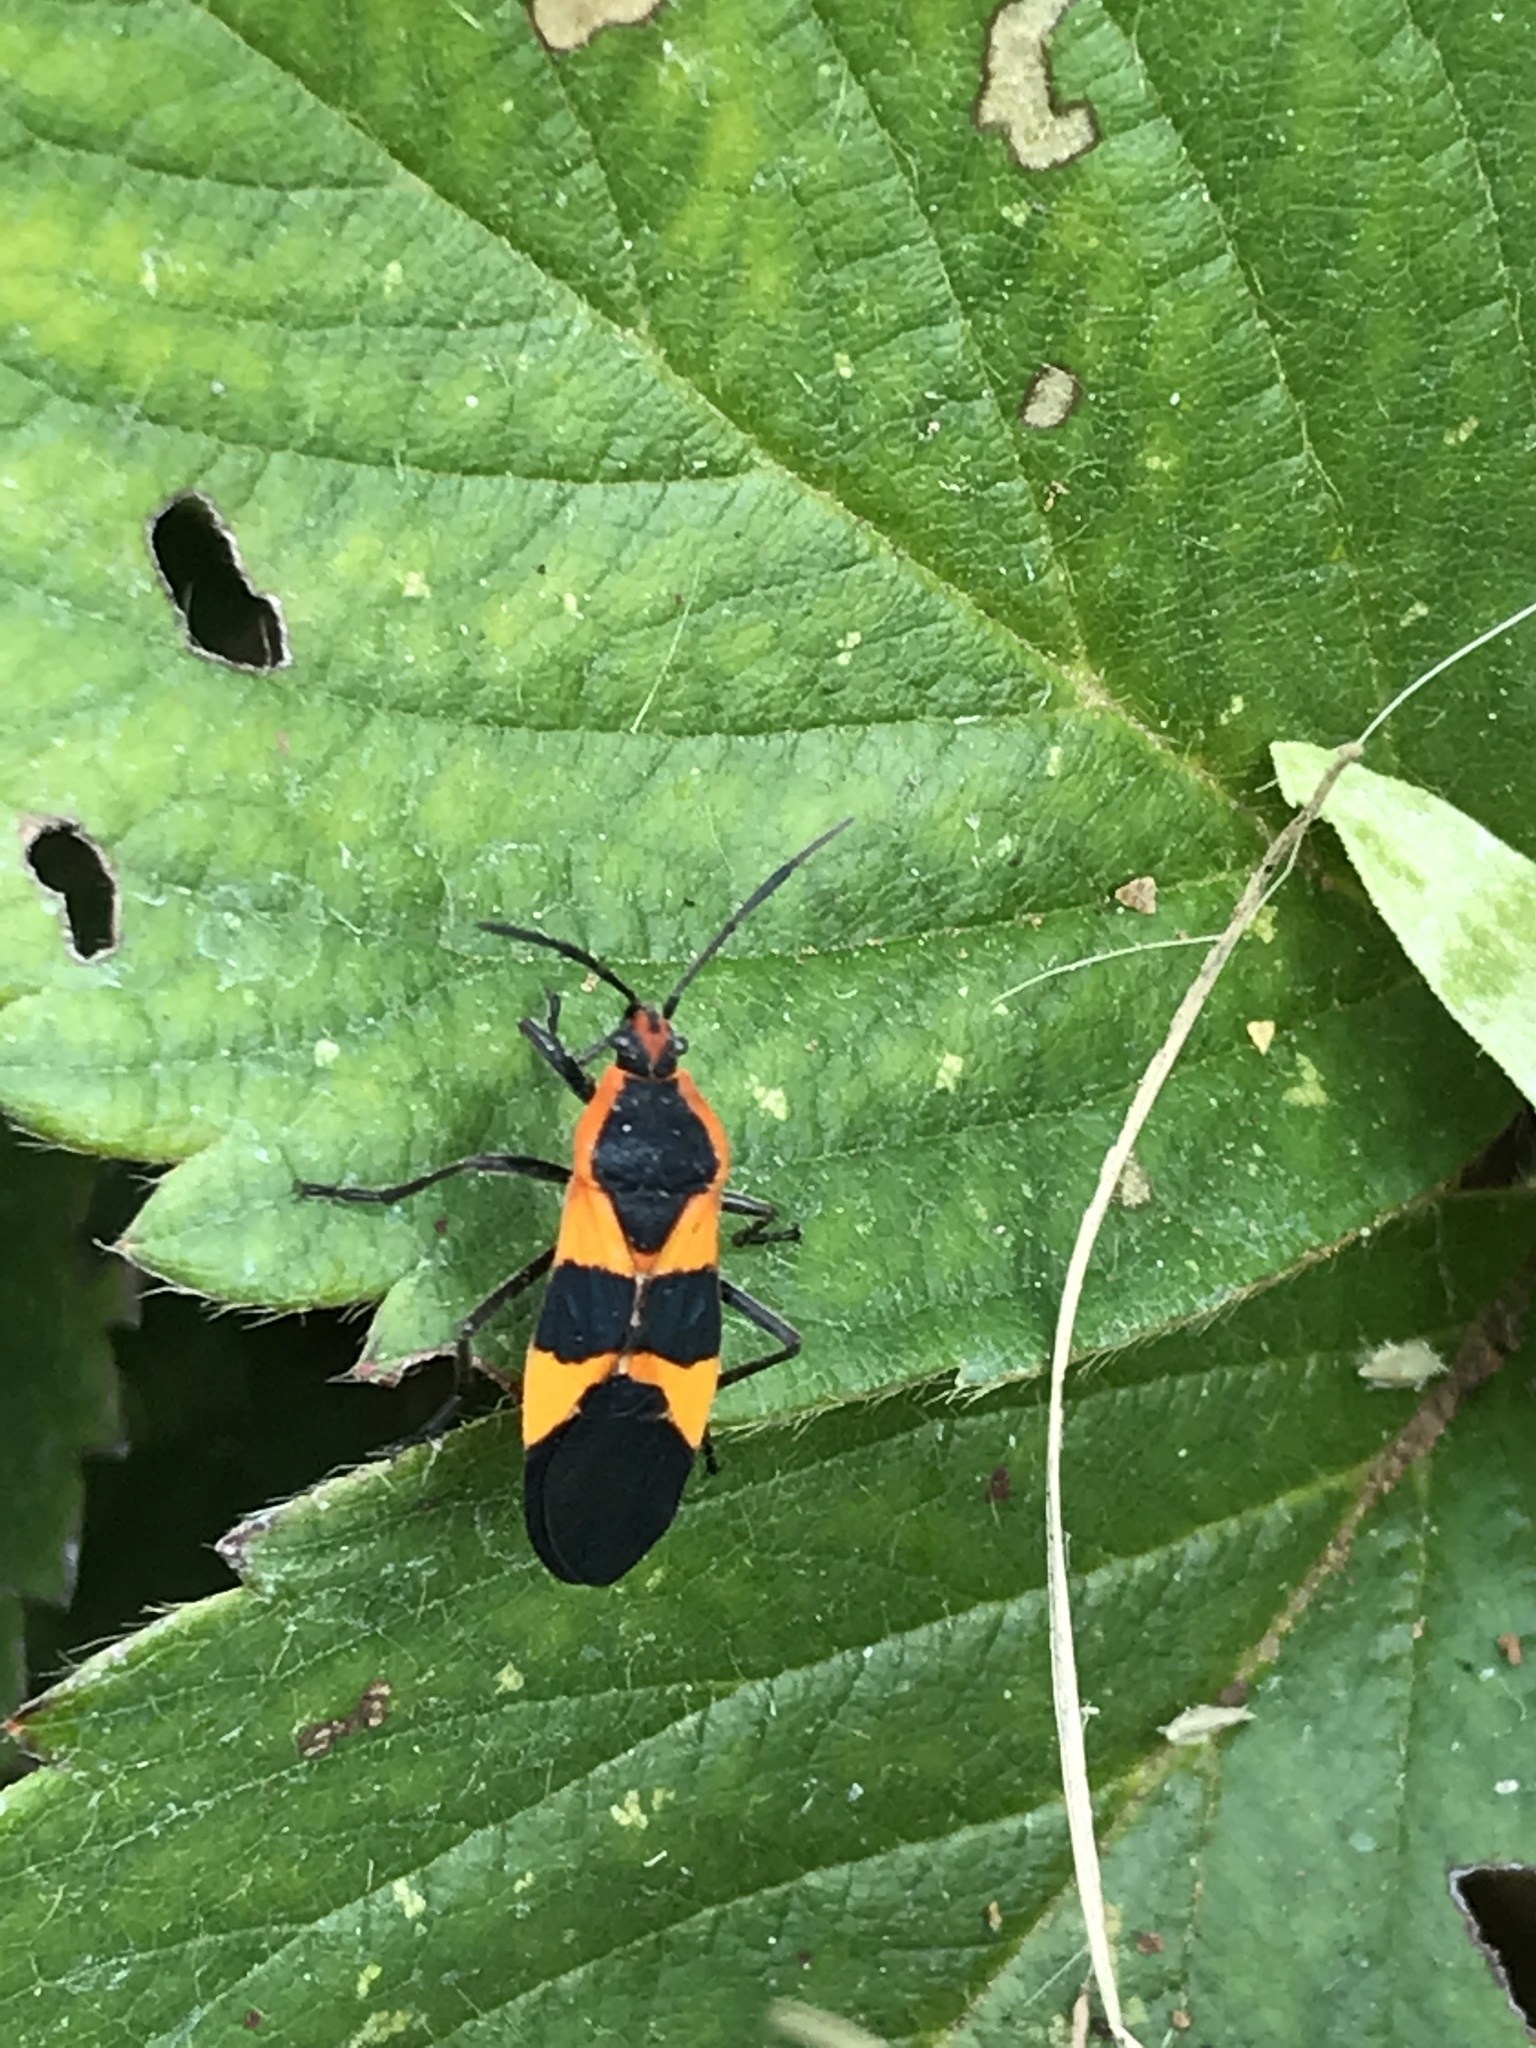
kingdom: Animalia
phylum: Arthropoda
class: Insecta
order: Hemiptera
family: Lygaeidae
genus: Oncopeltus
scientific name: Oncopeltus fasciatus
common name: Large milkweed bug
